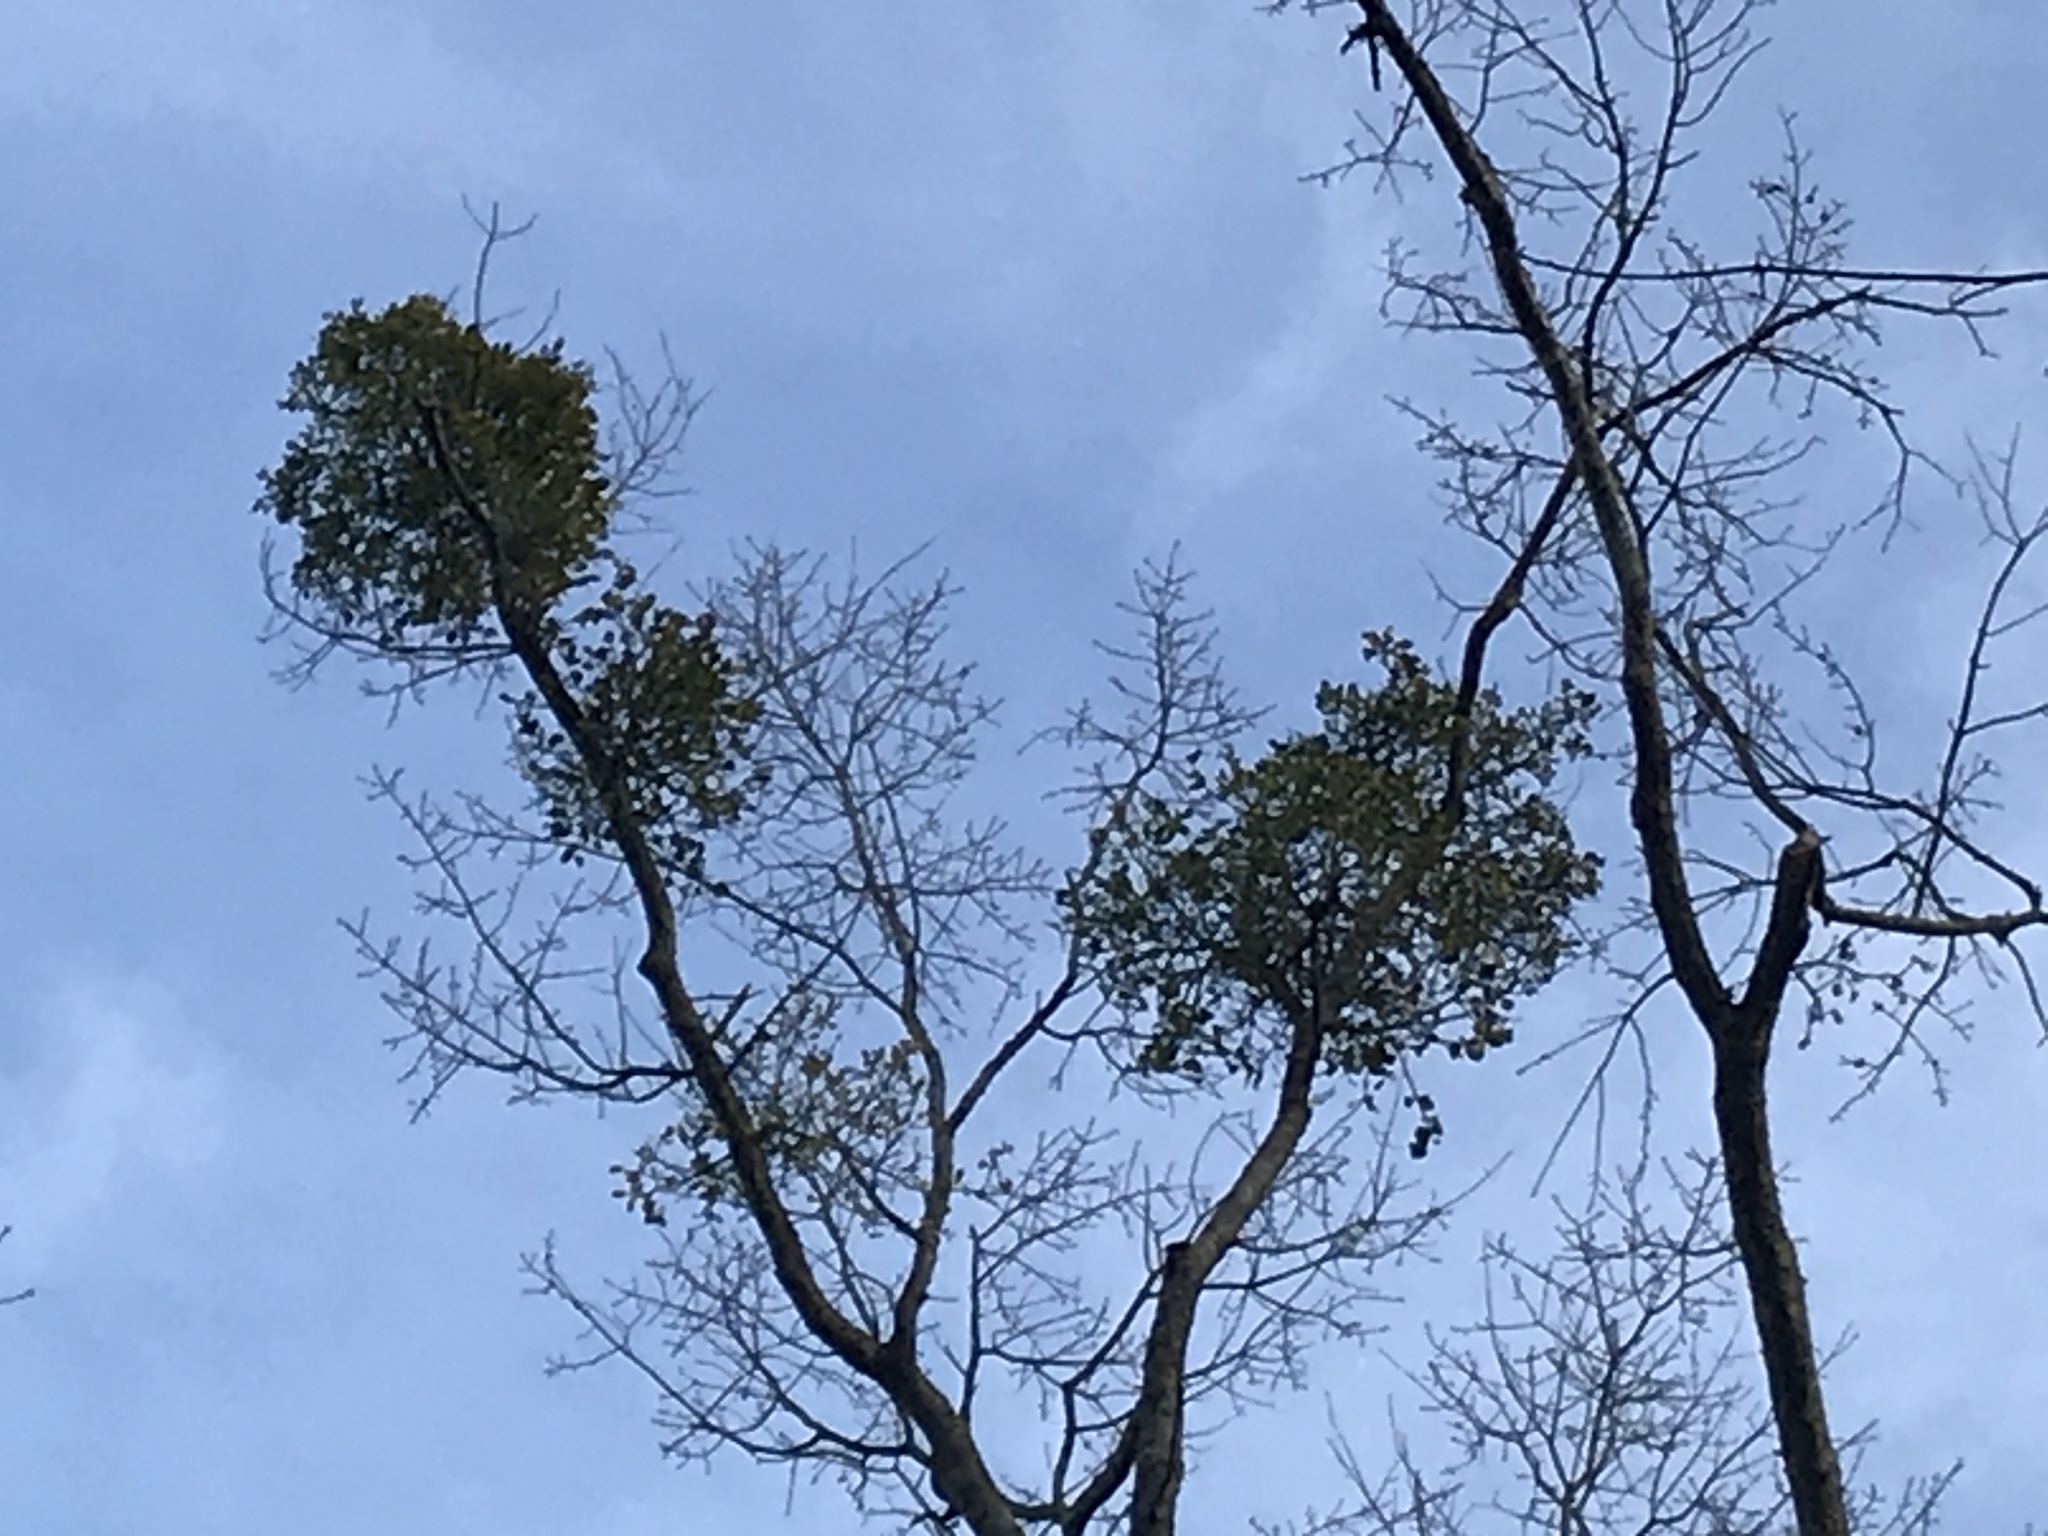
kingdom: Plantae
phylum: Tracheophyta
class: Magnoliopsida
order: Santalales
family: Viscaceae
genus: Phoradendron
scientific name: Phoradendron leucarpum
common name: Pacific mistletoe
